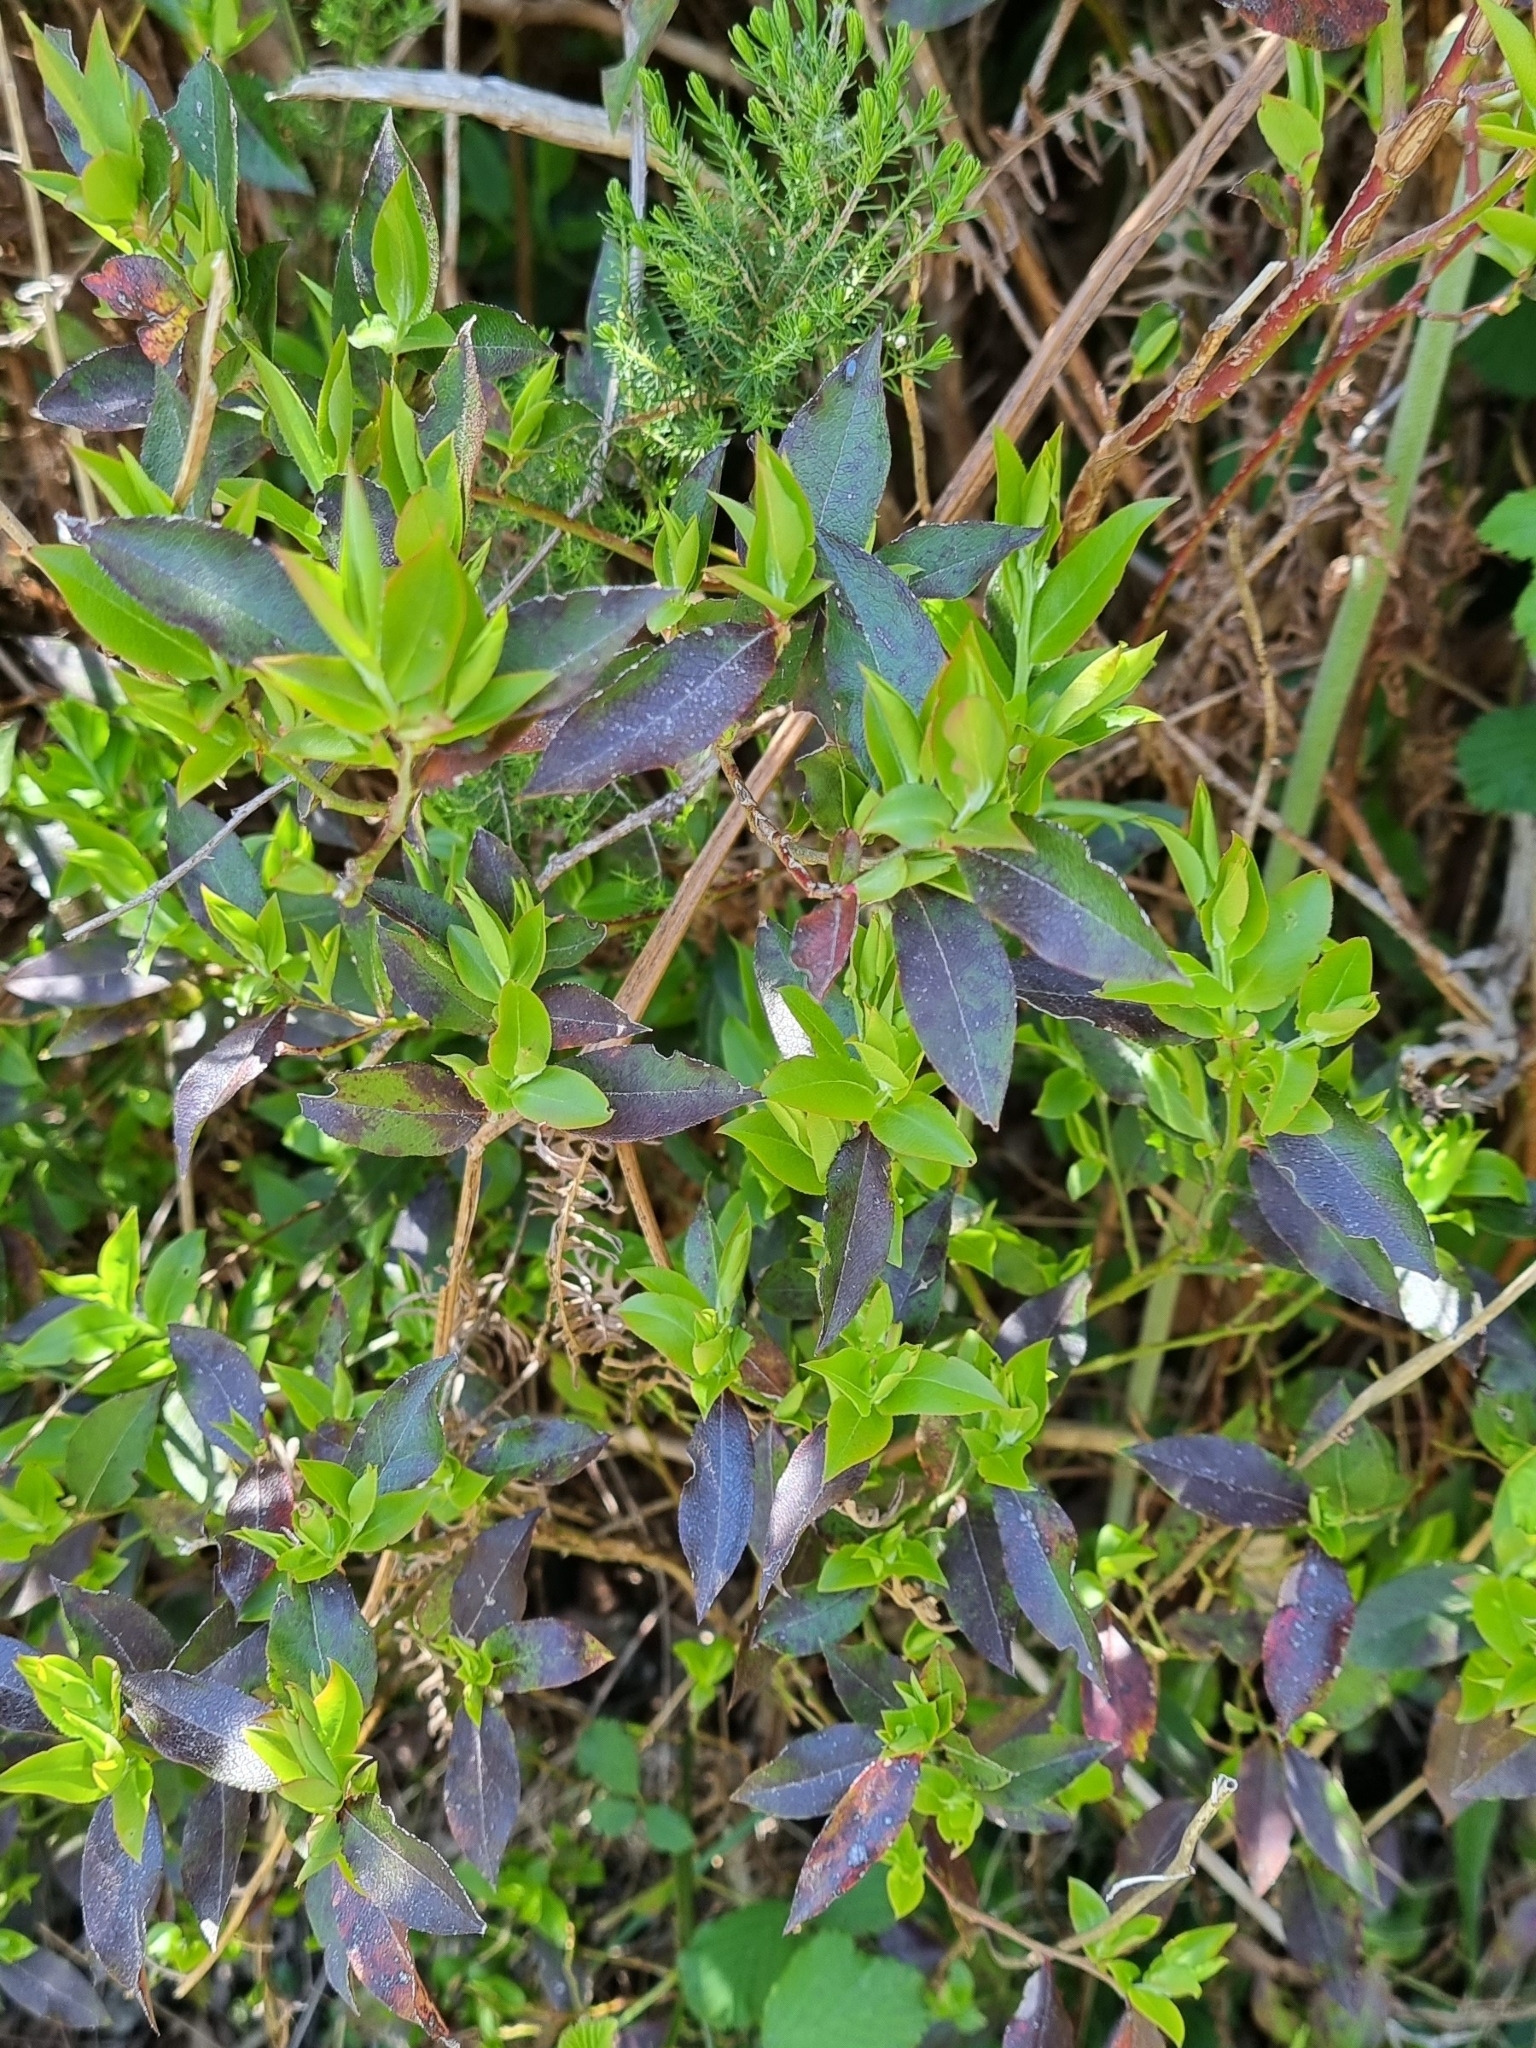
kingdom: Plantae
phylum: Tracheophyta
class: Magnoliopsida
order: Ericales
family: Ericaceae
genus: Vaccinium
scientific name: Vaccinium padifolium
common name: Madeiran blueberry
